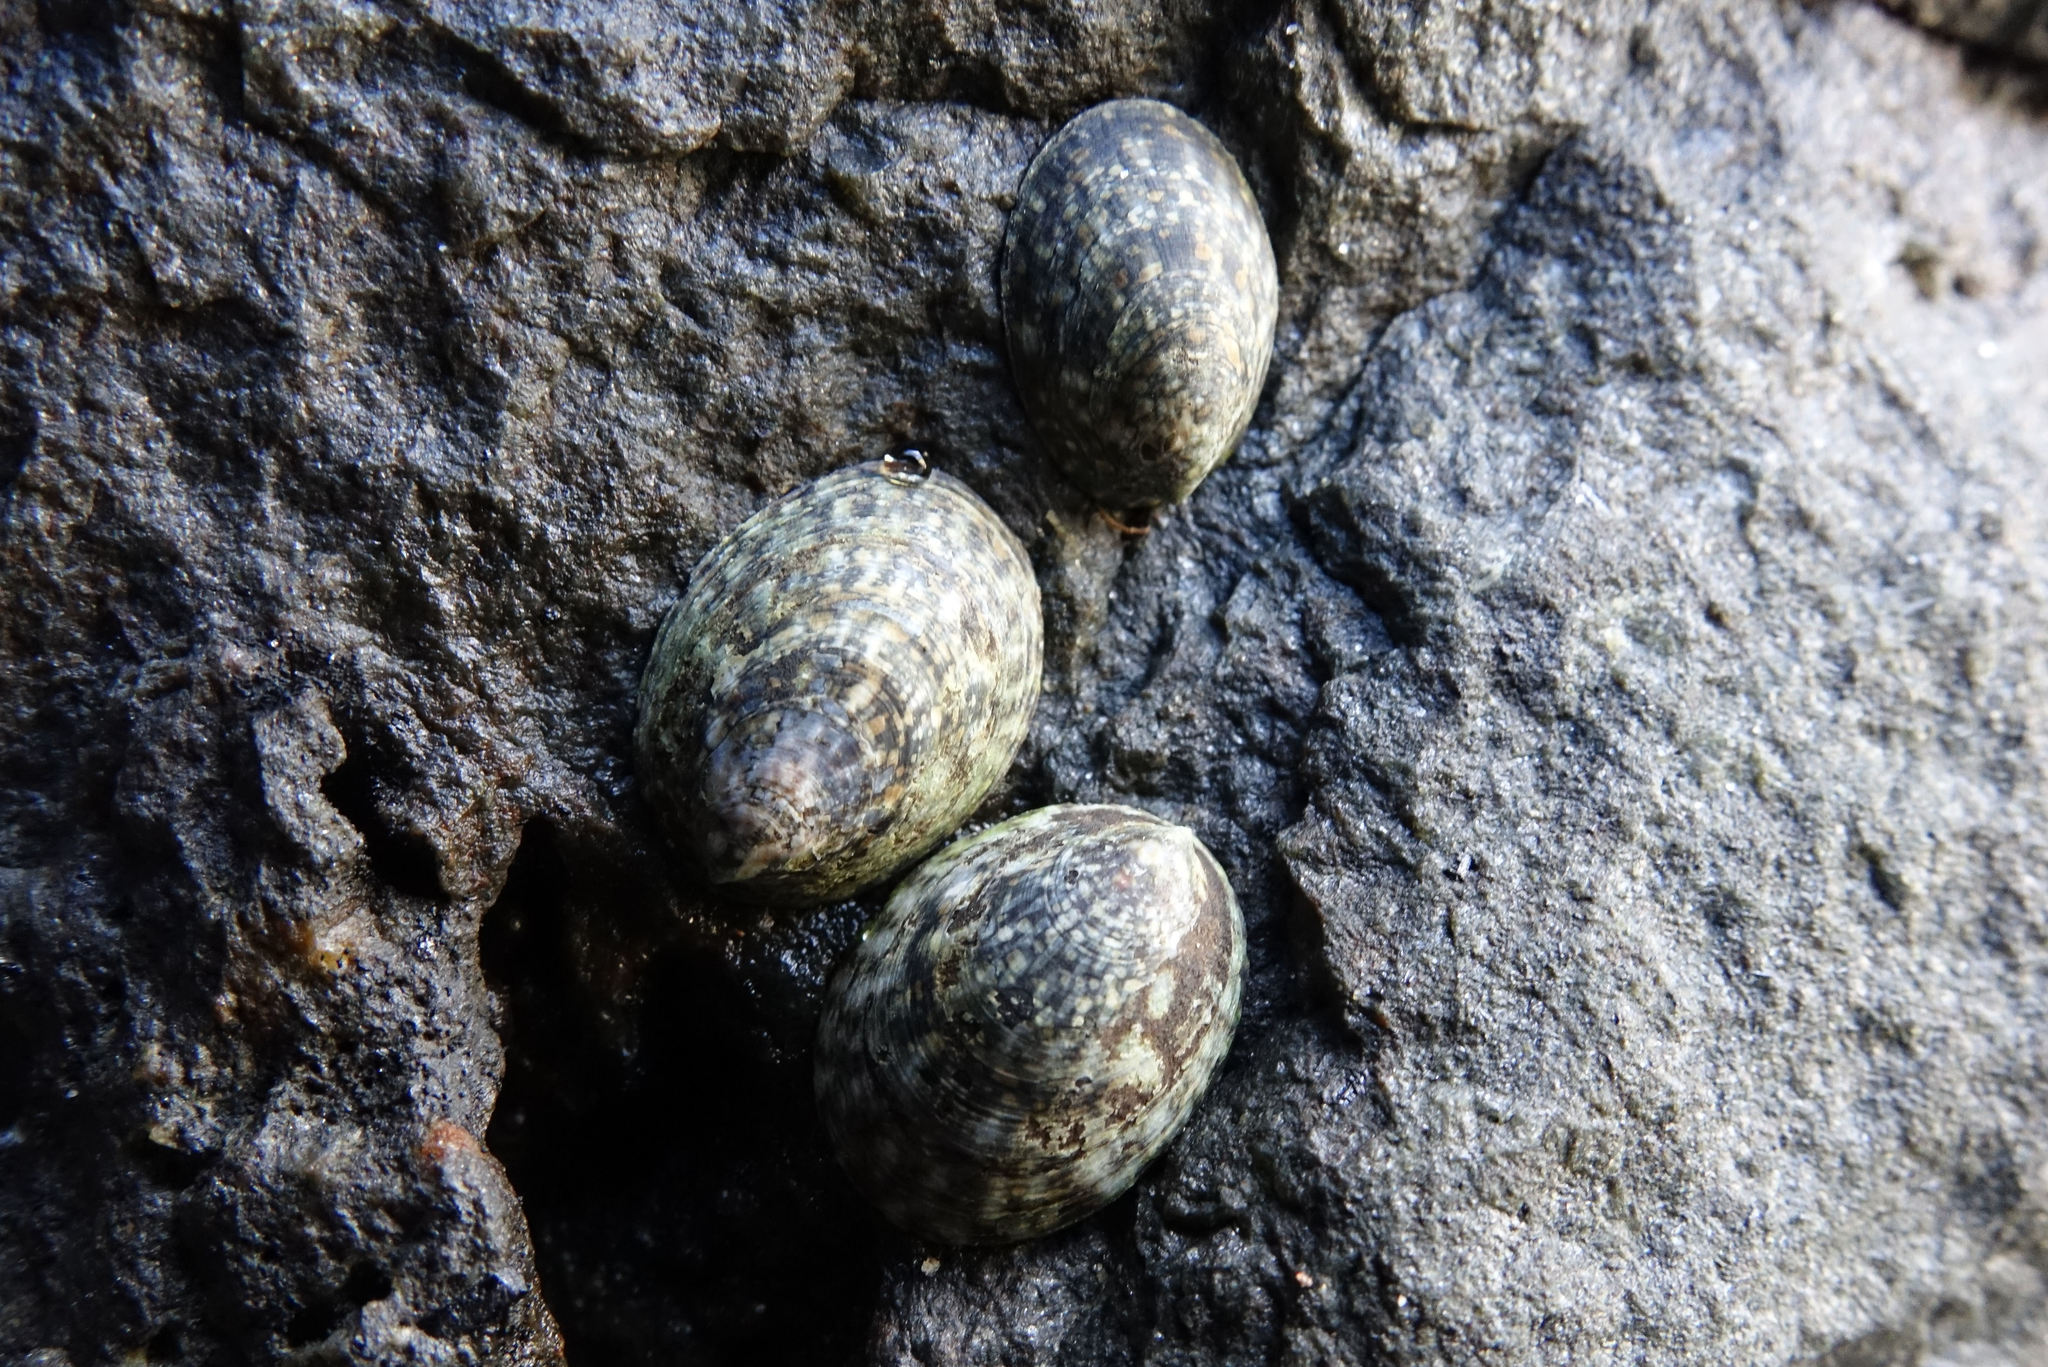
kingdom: Animalia
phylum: Mollusca
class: Gastropoda
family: Lottiidae
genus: Notoacmea
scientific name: Notoacmea sturnus
